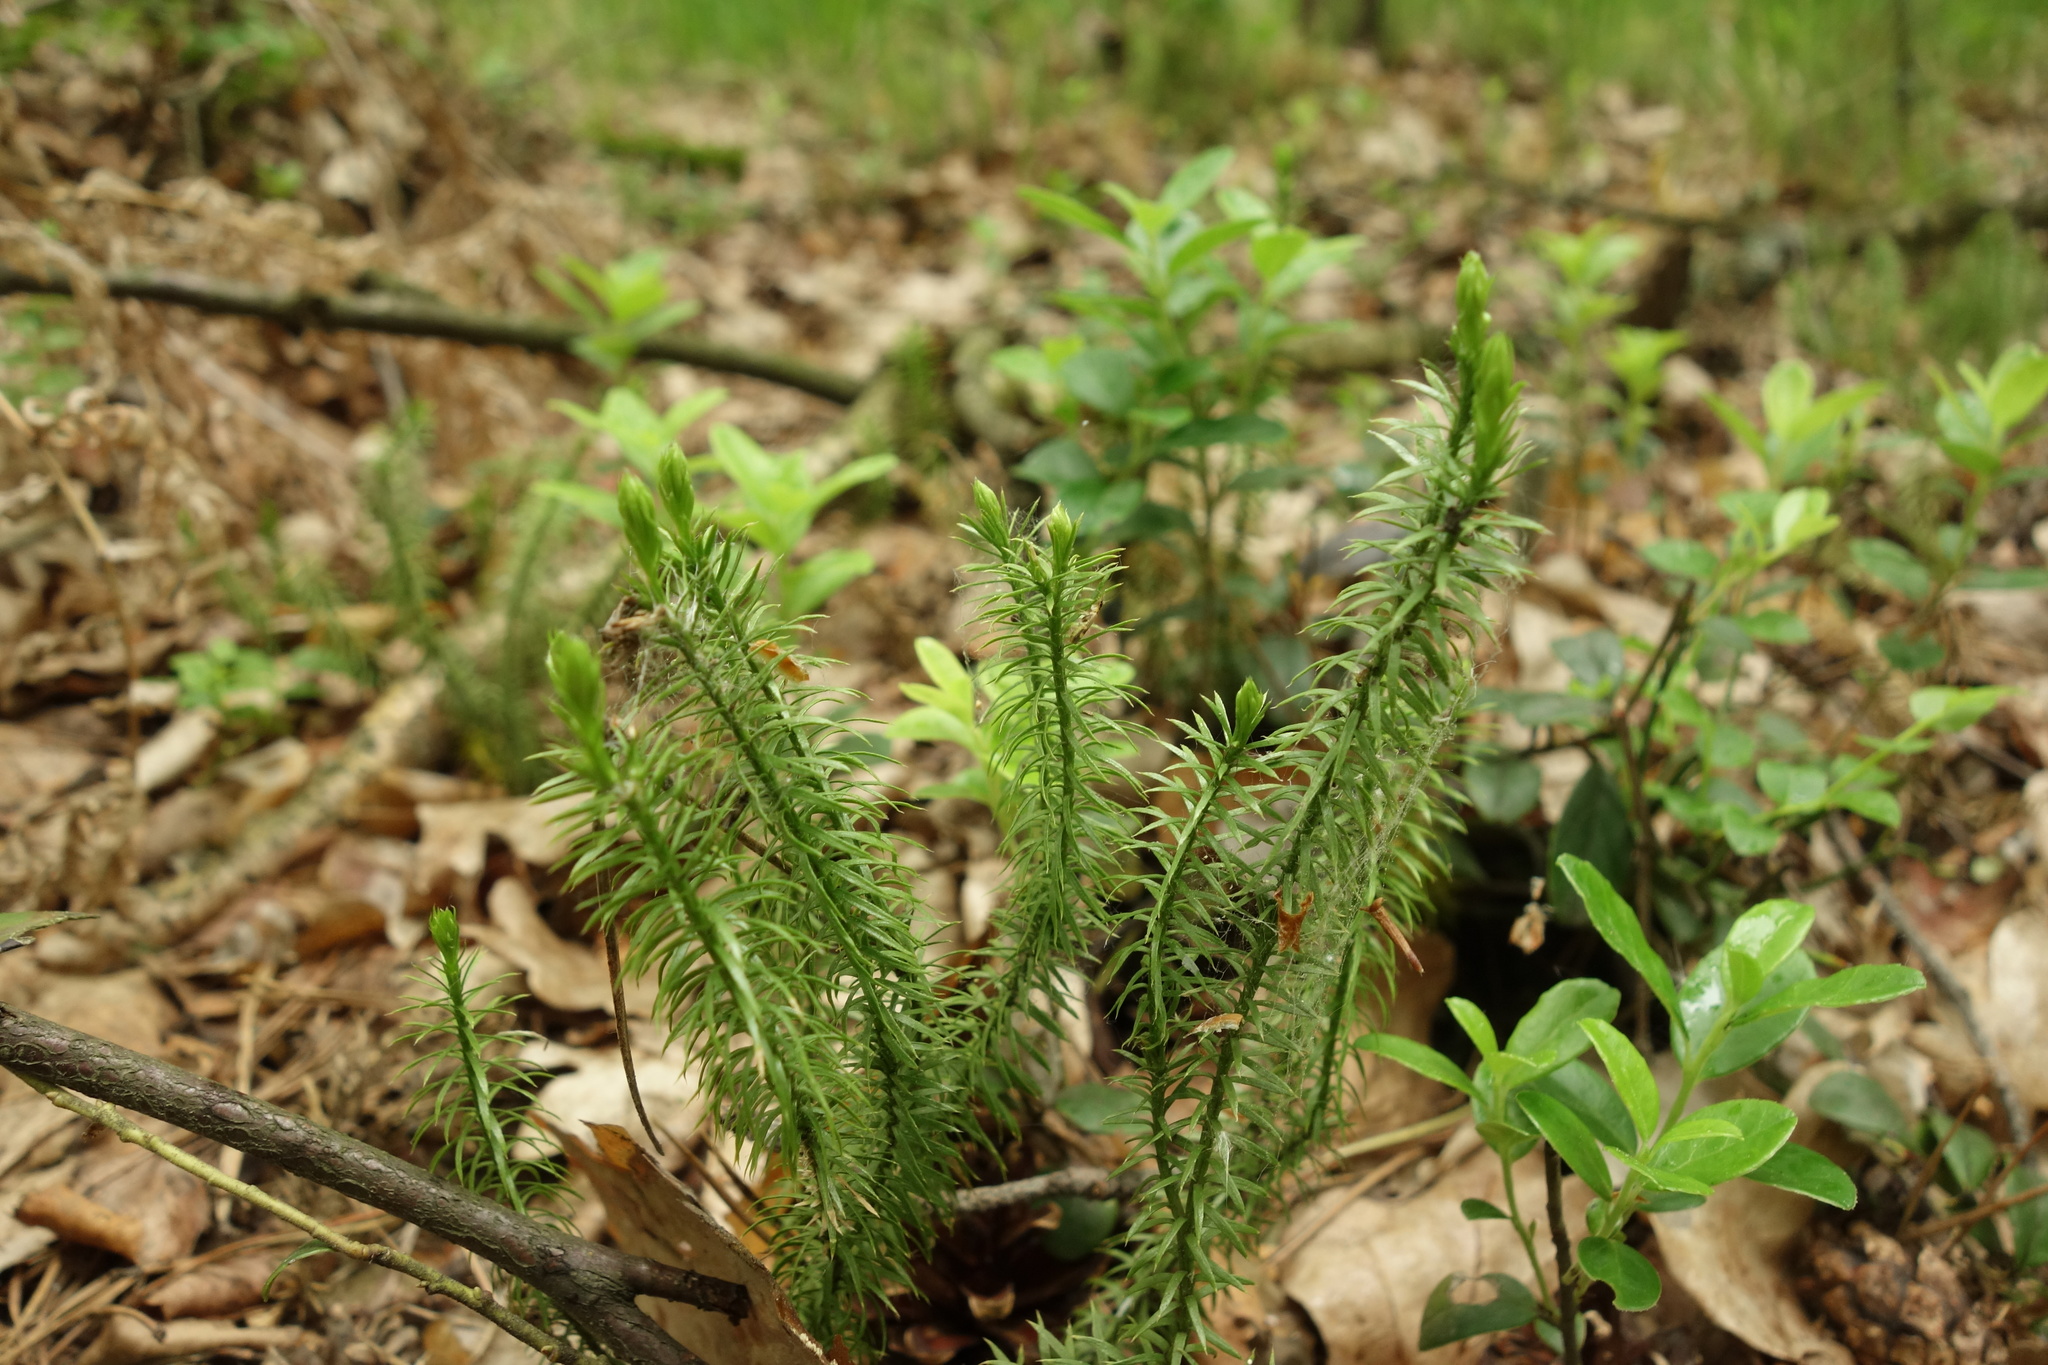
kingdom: Plantae
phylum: Tracheophyta
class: Lycopodiopsida
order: Lycopodiales
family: Lycopodiaceae
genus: Spinulum
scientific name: Spinulum annotinum
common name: Interrupted club-moss
